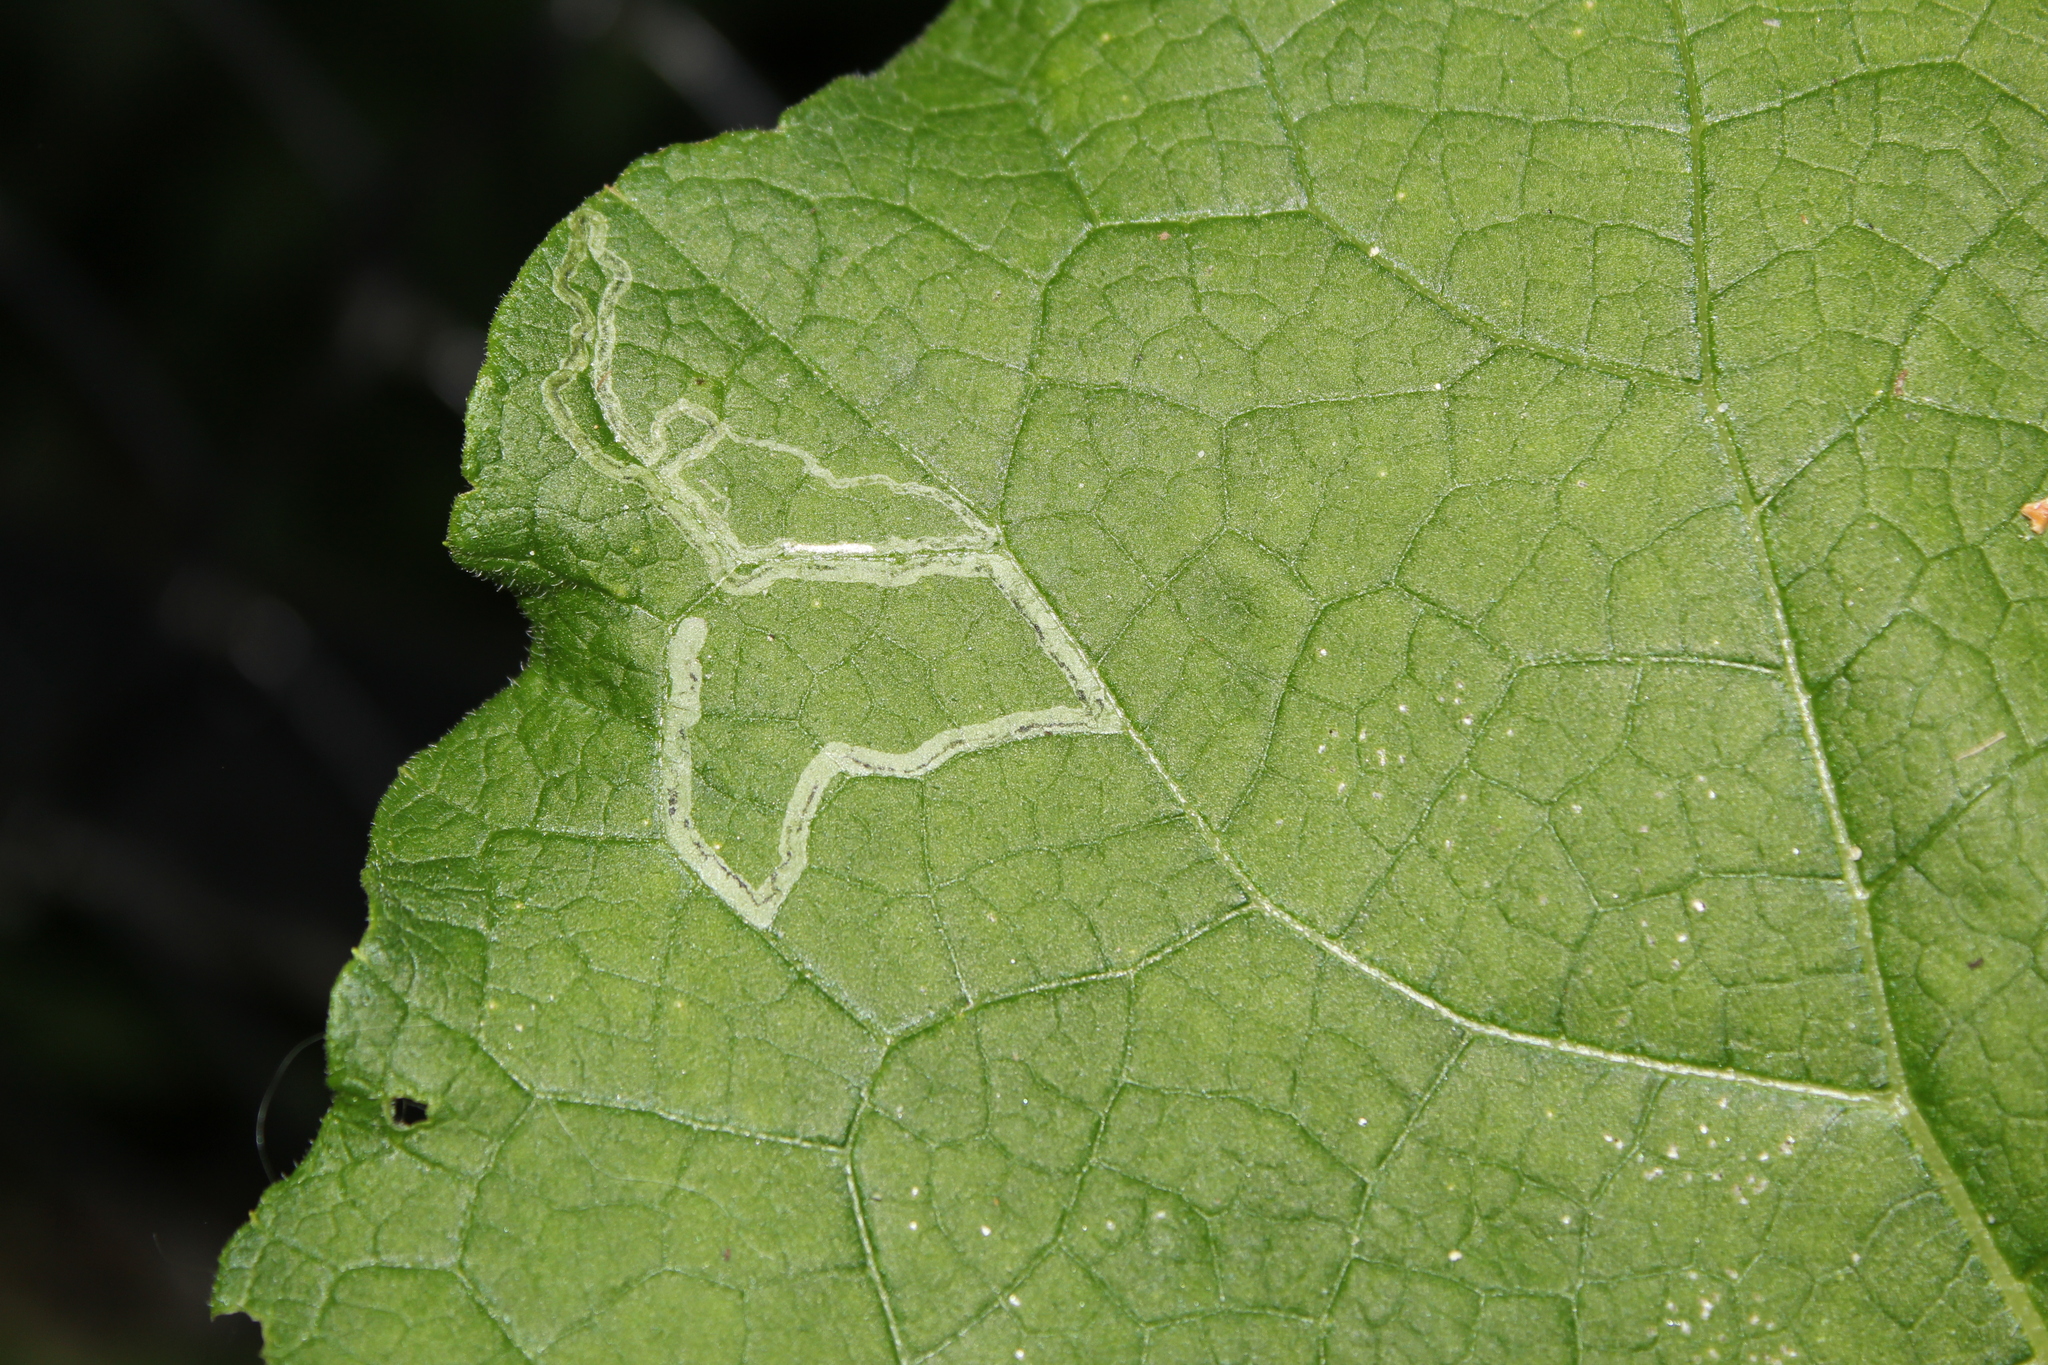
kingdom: Animalia
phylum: Arthropoda
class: Insecta
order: Diptera
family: Agromyzidae
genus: Liriomyza
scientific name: Liriomyza arctii
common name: Burdock leafminer
